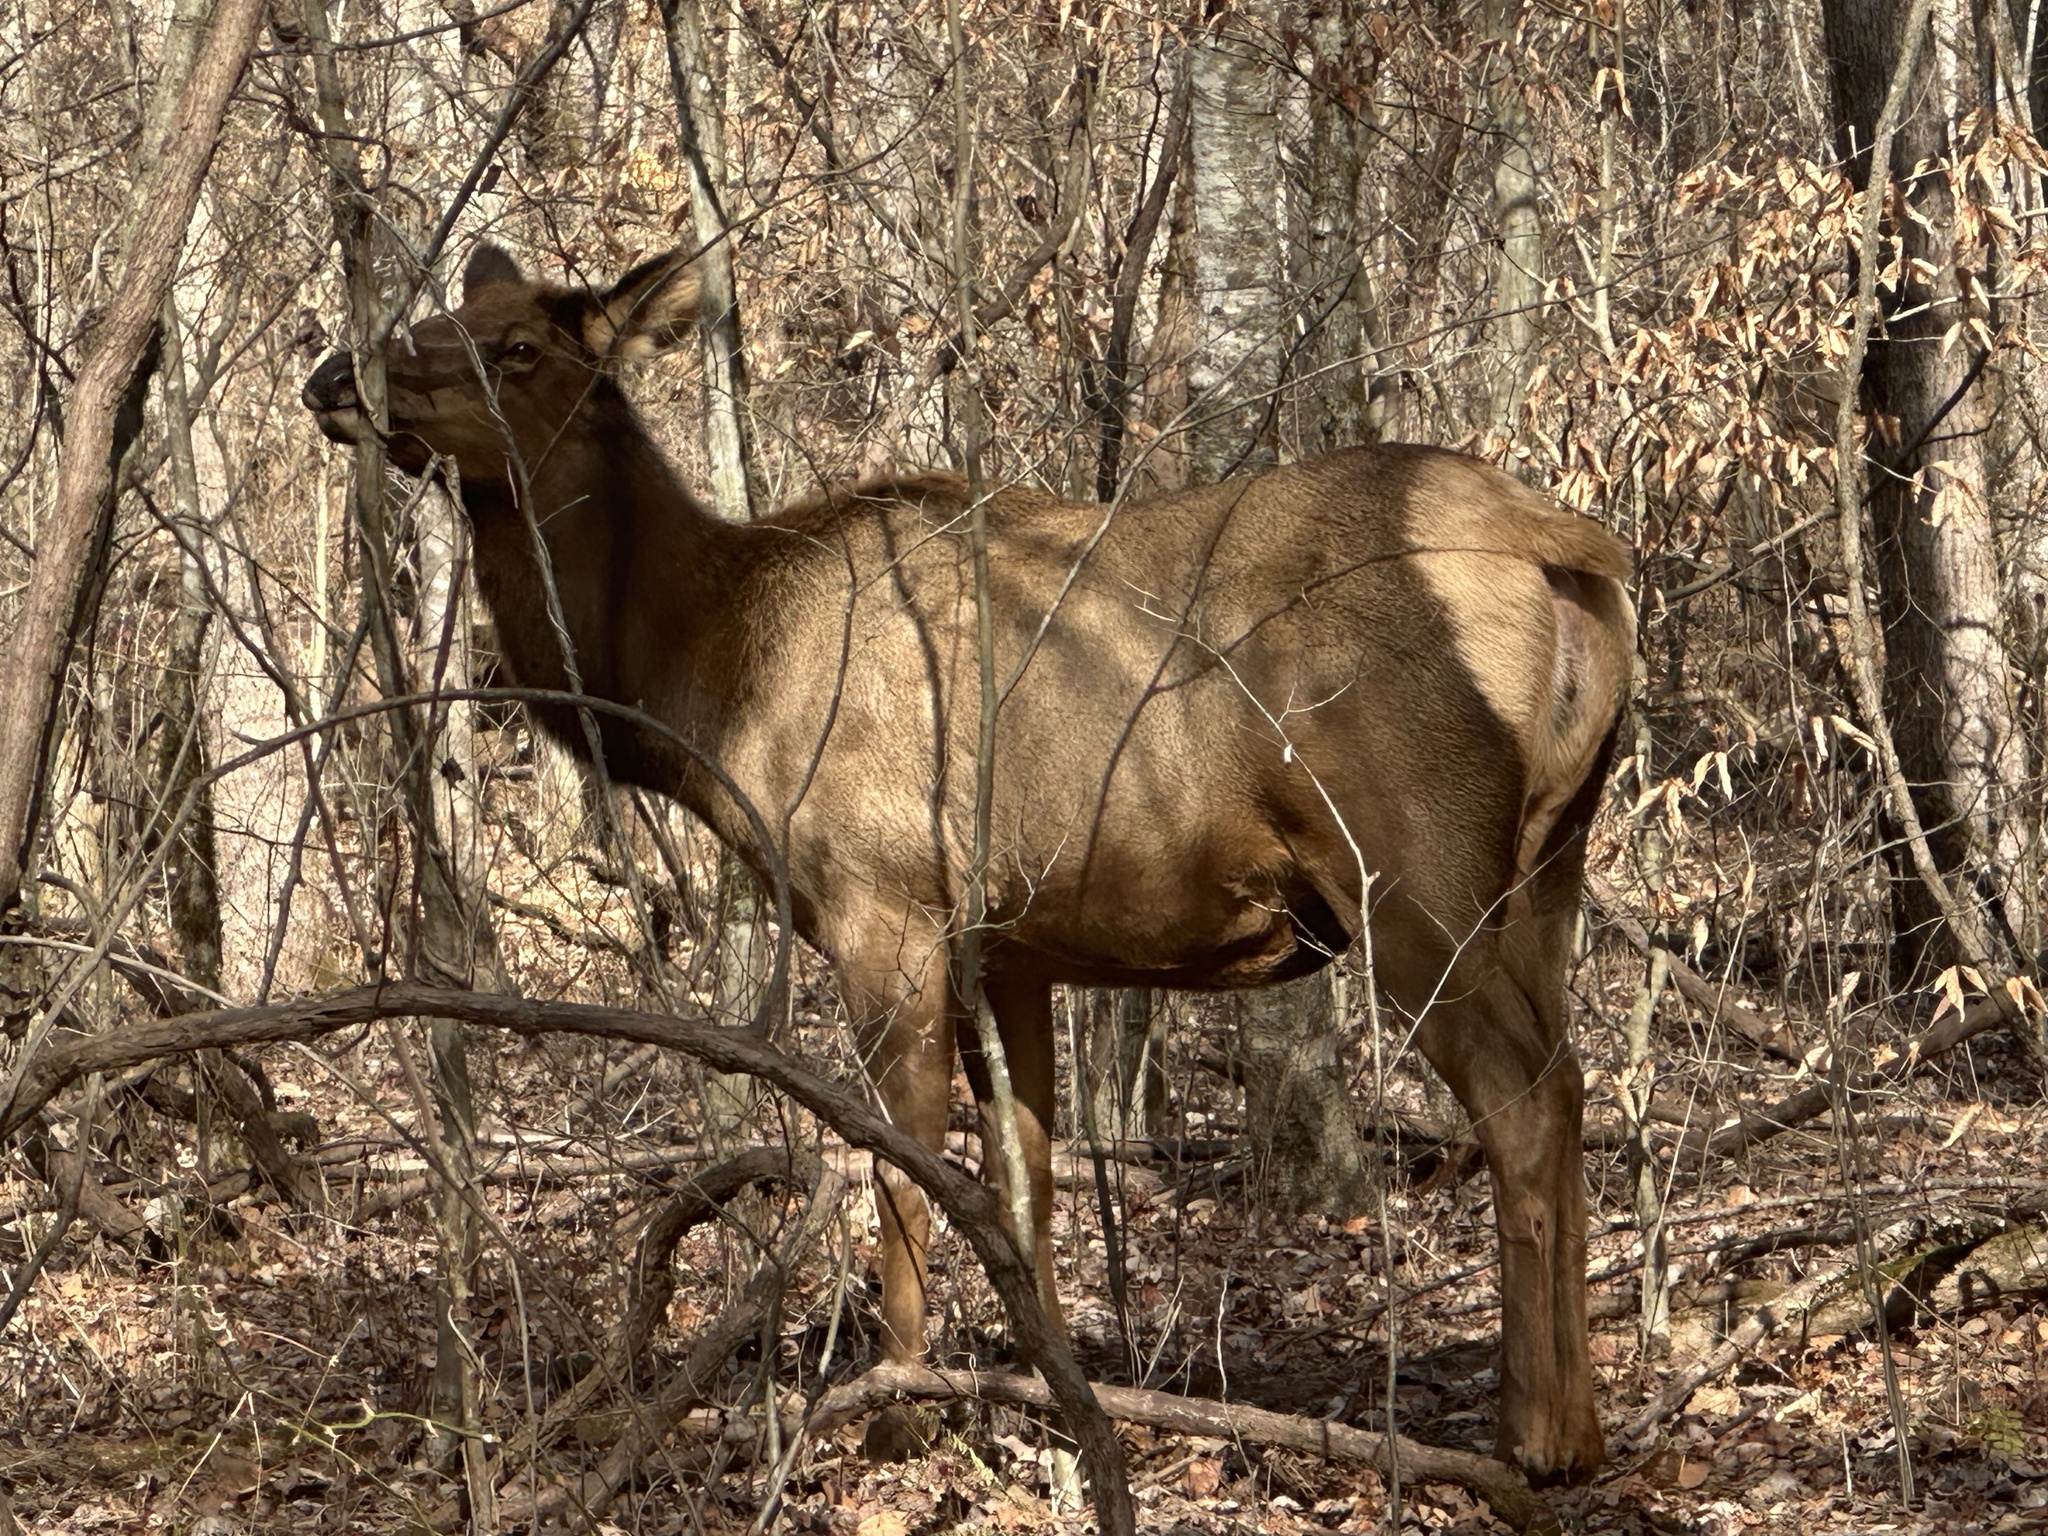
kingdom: Animalia
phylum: Chordata
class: Mammalia
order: Artiodactyla
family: Cervidae
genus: Cervus
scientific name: Cervus elaphus
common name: Red deer
